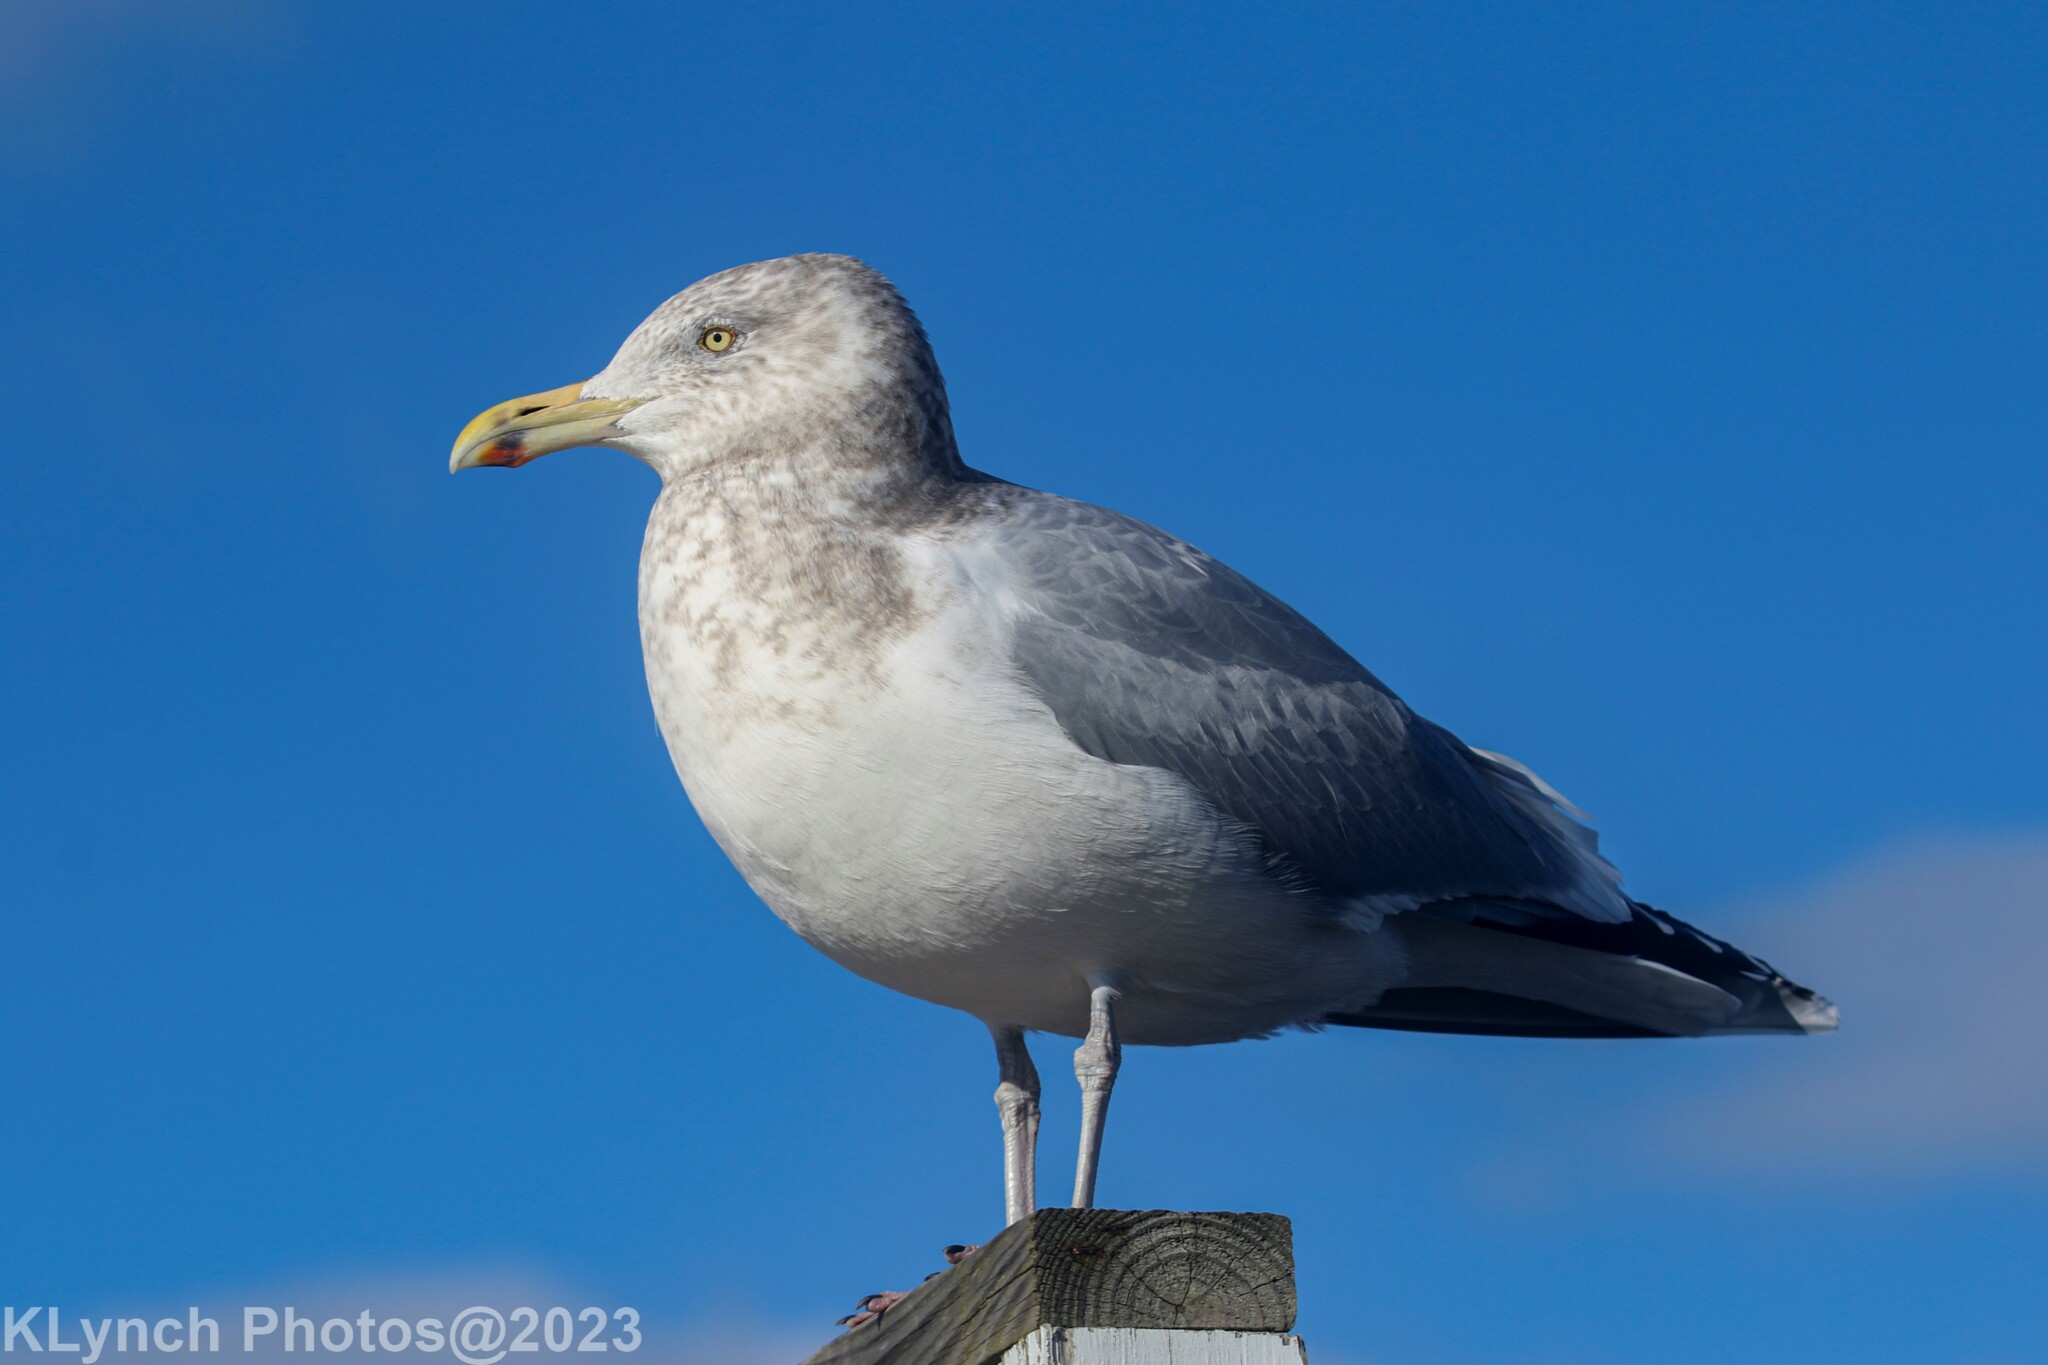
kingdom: Animalia
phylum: Chordata
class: Aves
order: Charadriiformes
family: Laridae
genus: Larus
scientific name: Larus argentatus
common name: Herring gull
